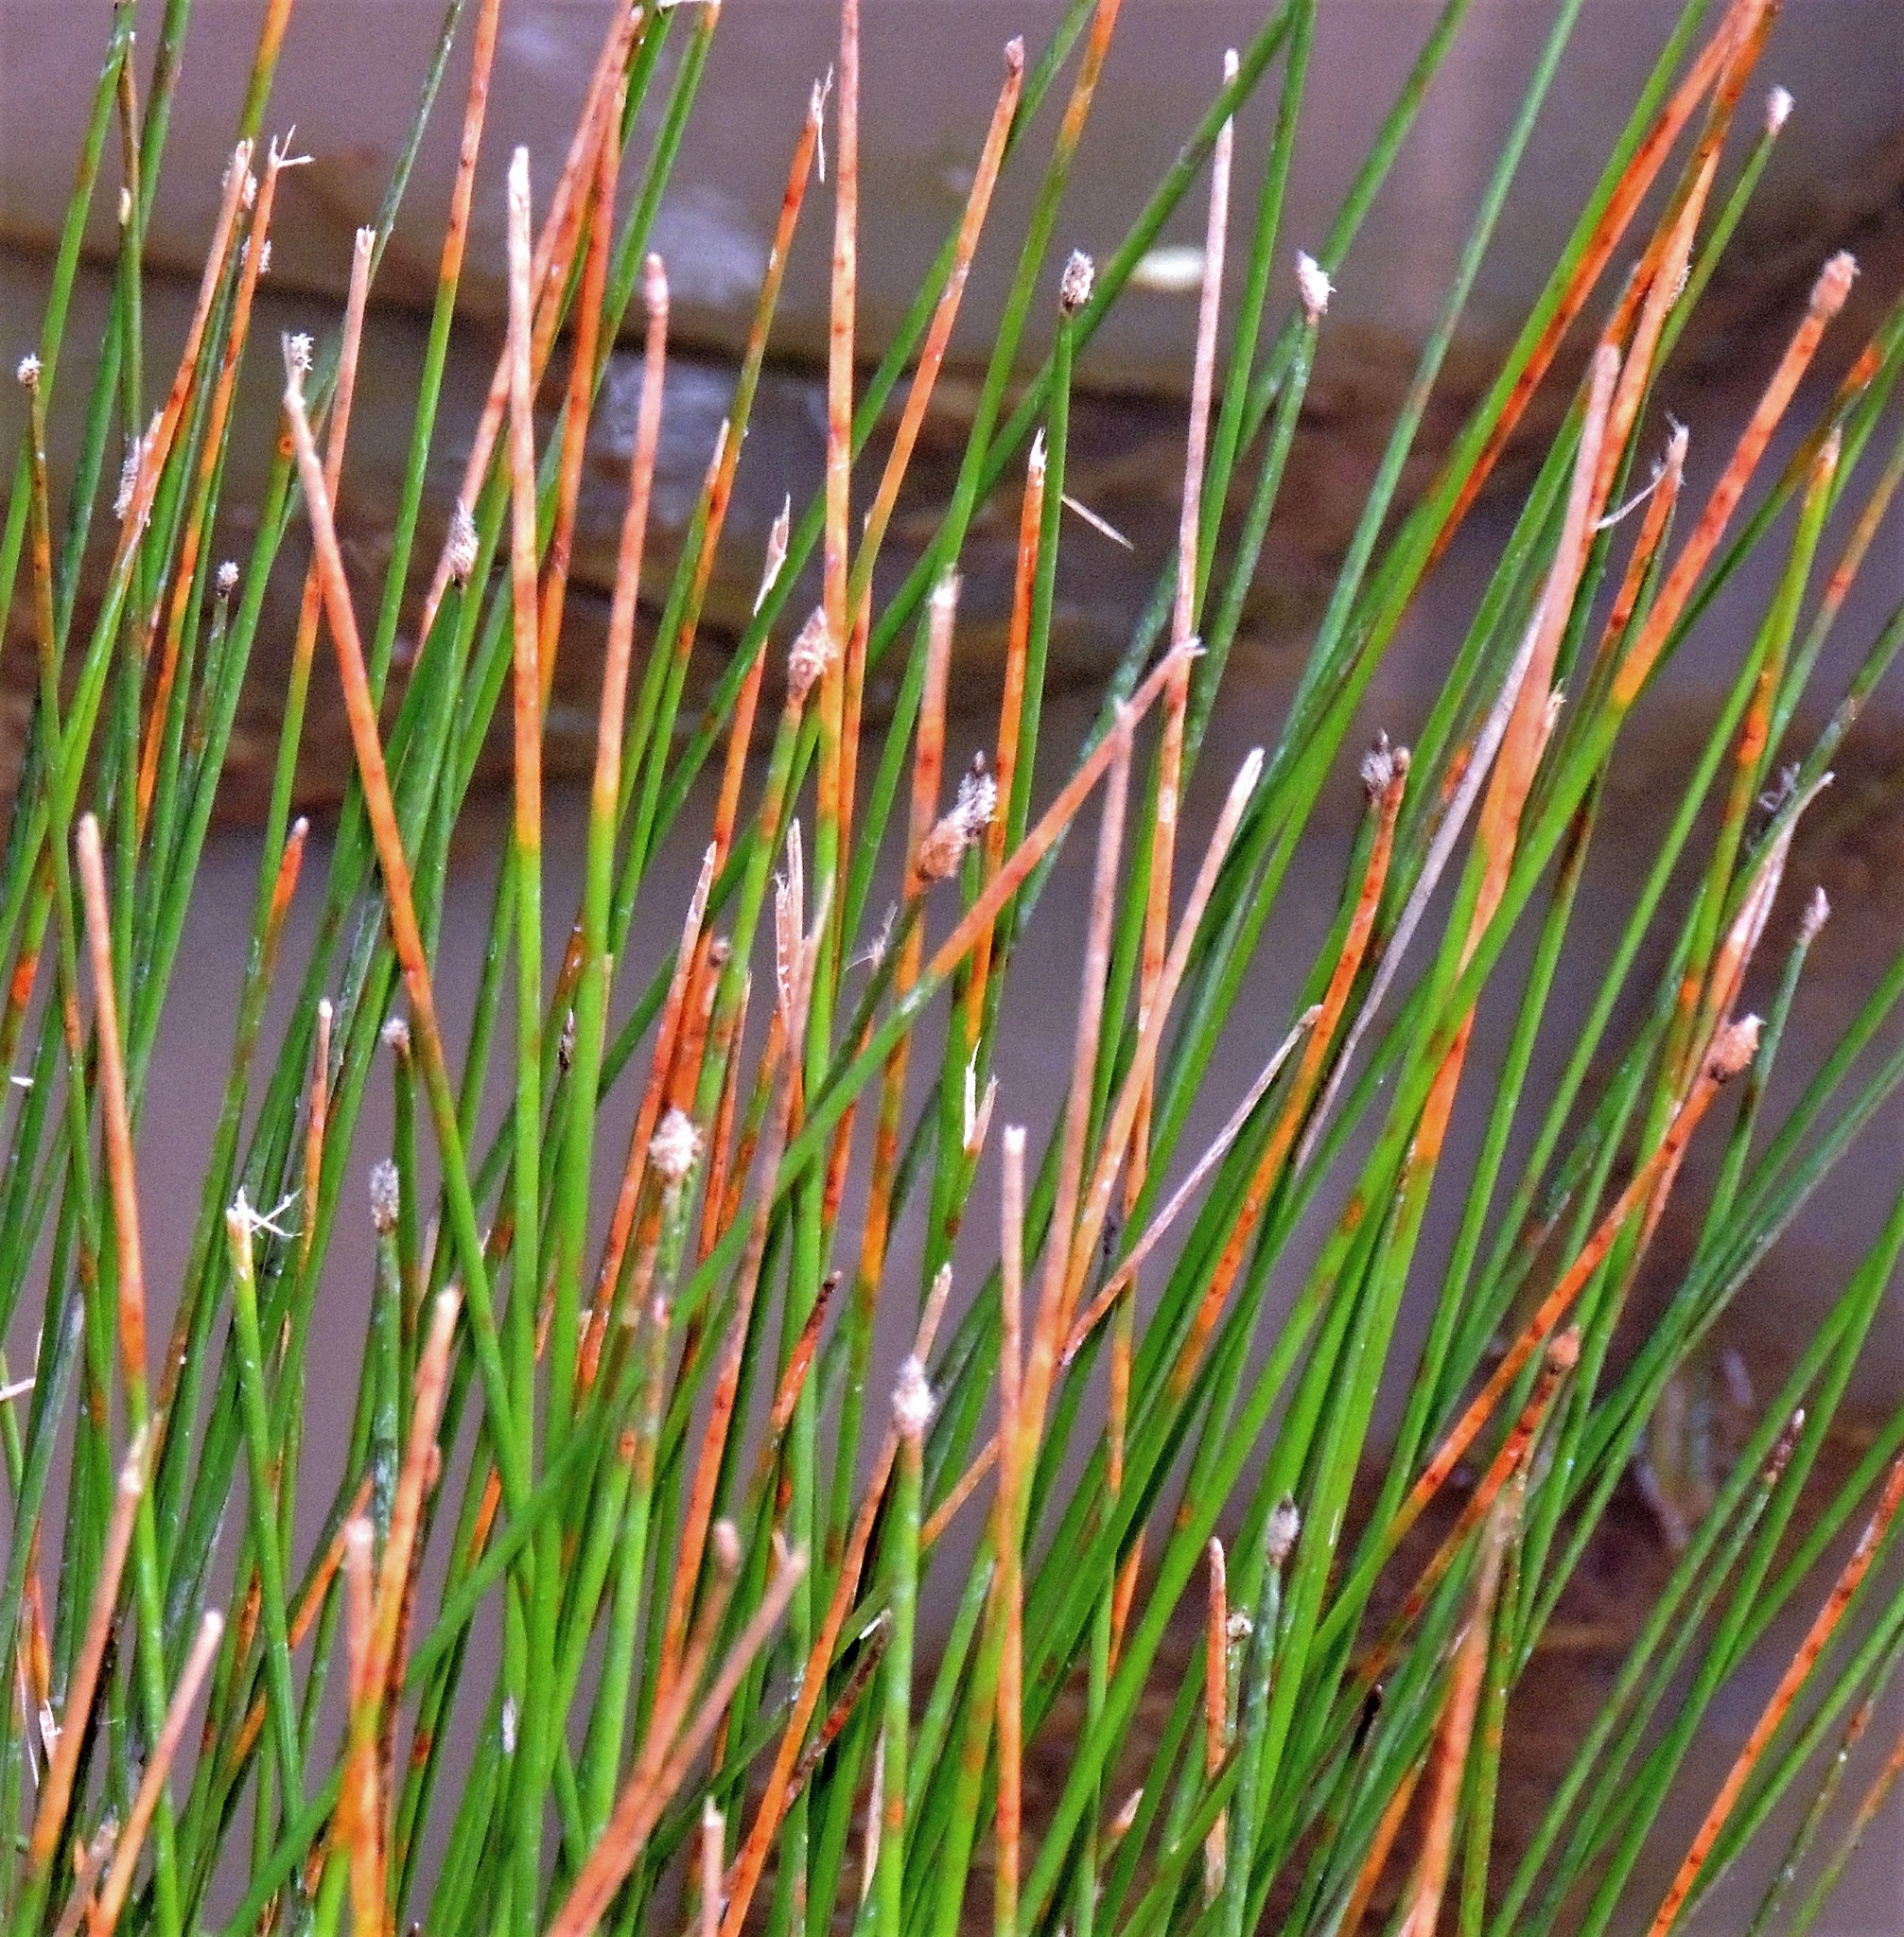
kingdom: Plantae
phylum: Tracheophyta
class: Liliopsida
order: Poales
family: Cyperaceae
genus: Eleocharis
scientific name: Eleocharis elegans
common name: Elegant spike-rush
